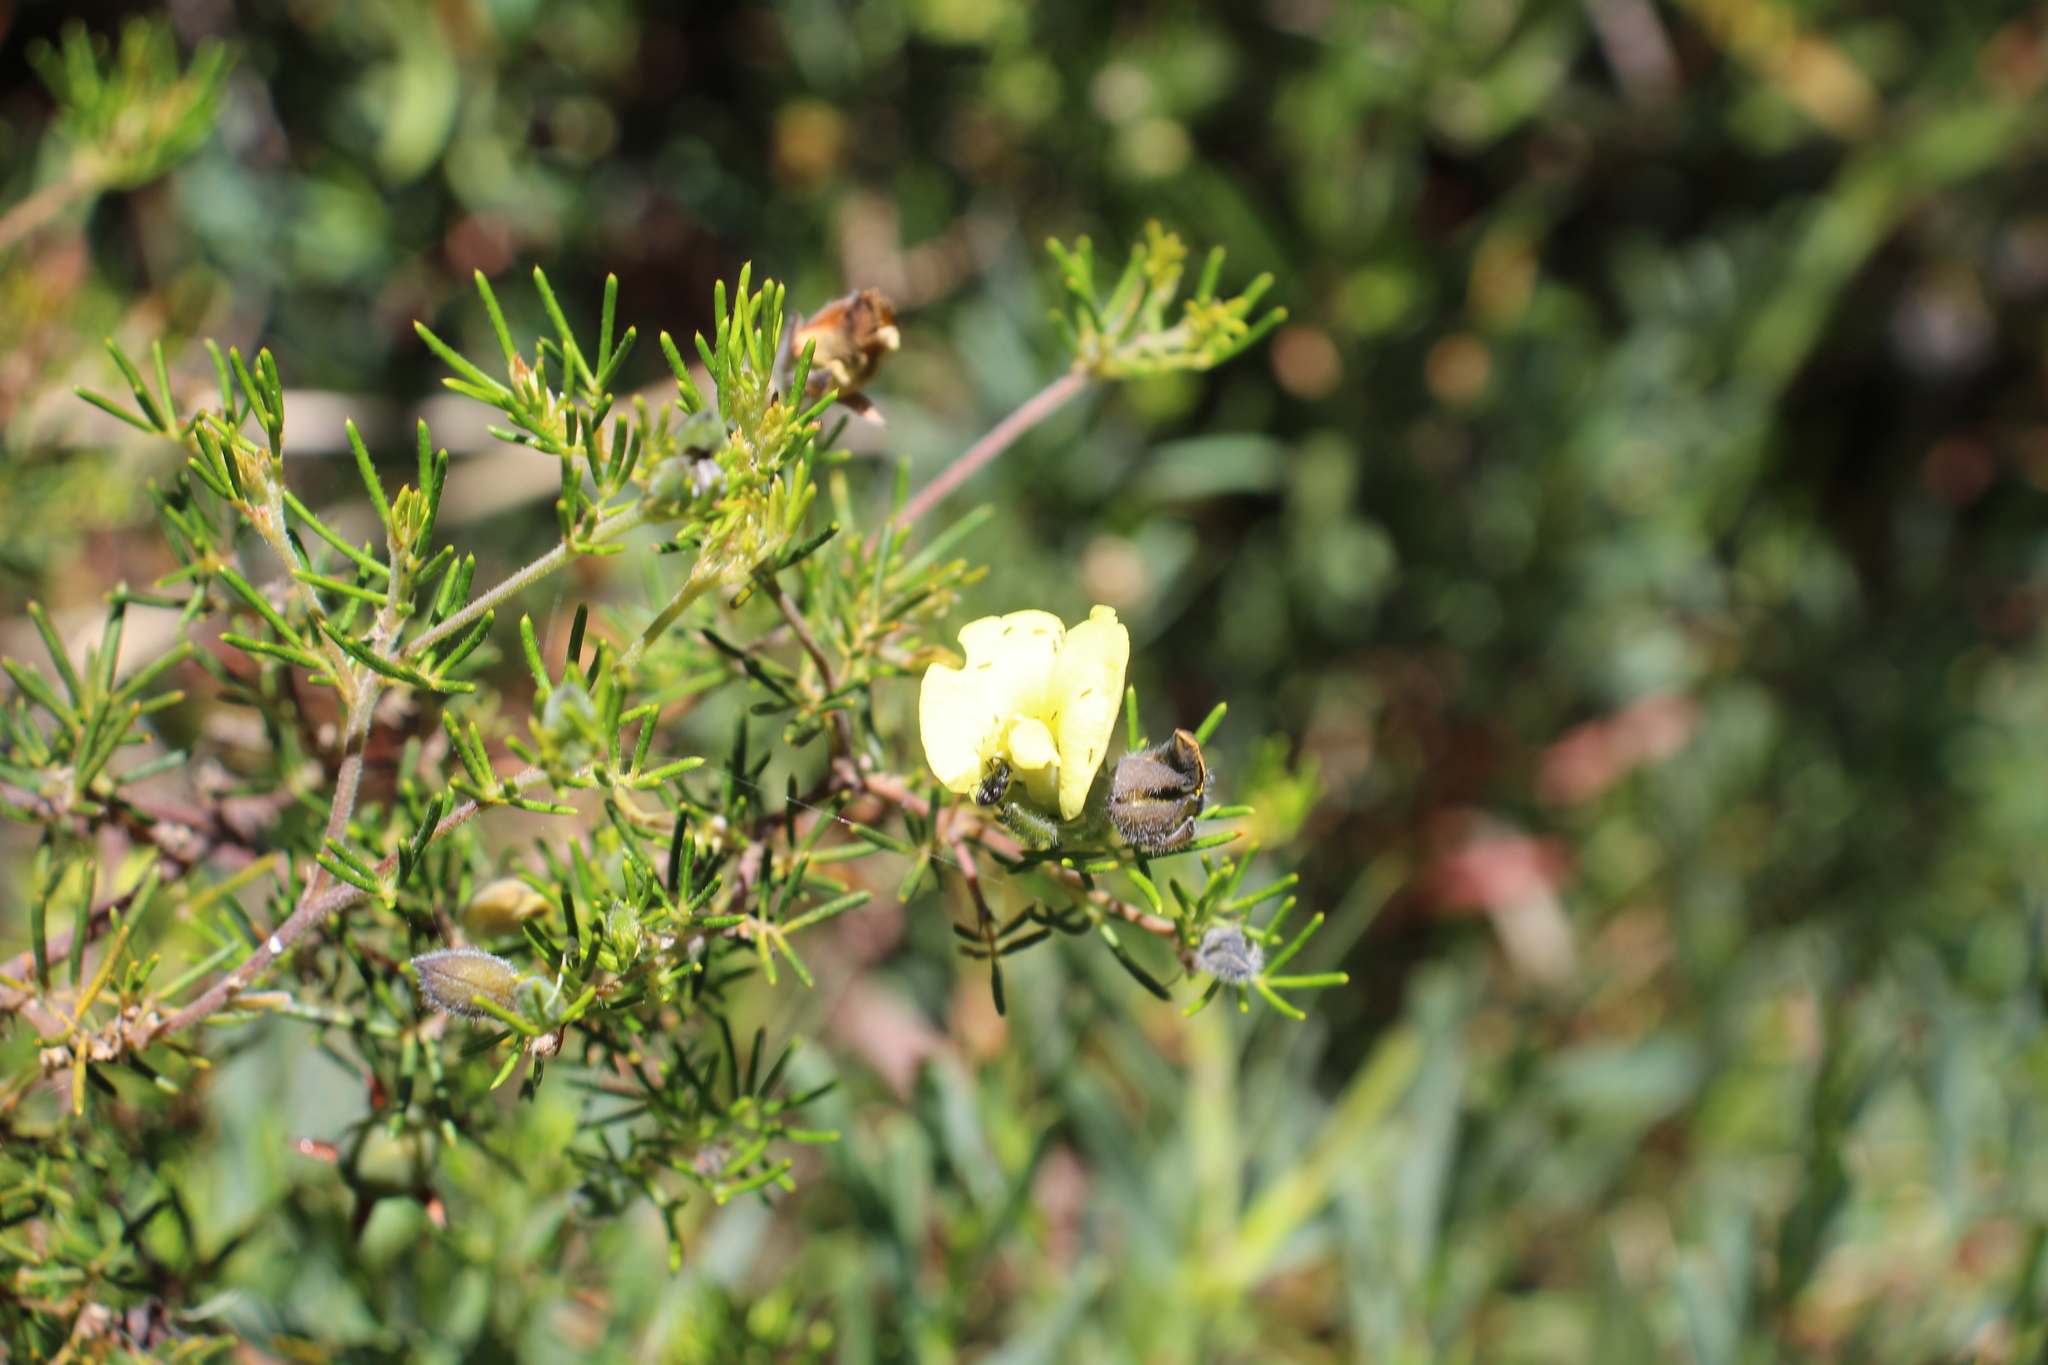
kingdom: Plantae
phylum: Tracheophyta
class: Magnoliopsida
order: Fabales
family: Fabaceae
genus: Gompholobium
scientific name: Gompholobium tomentosum
